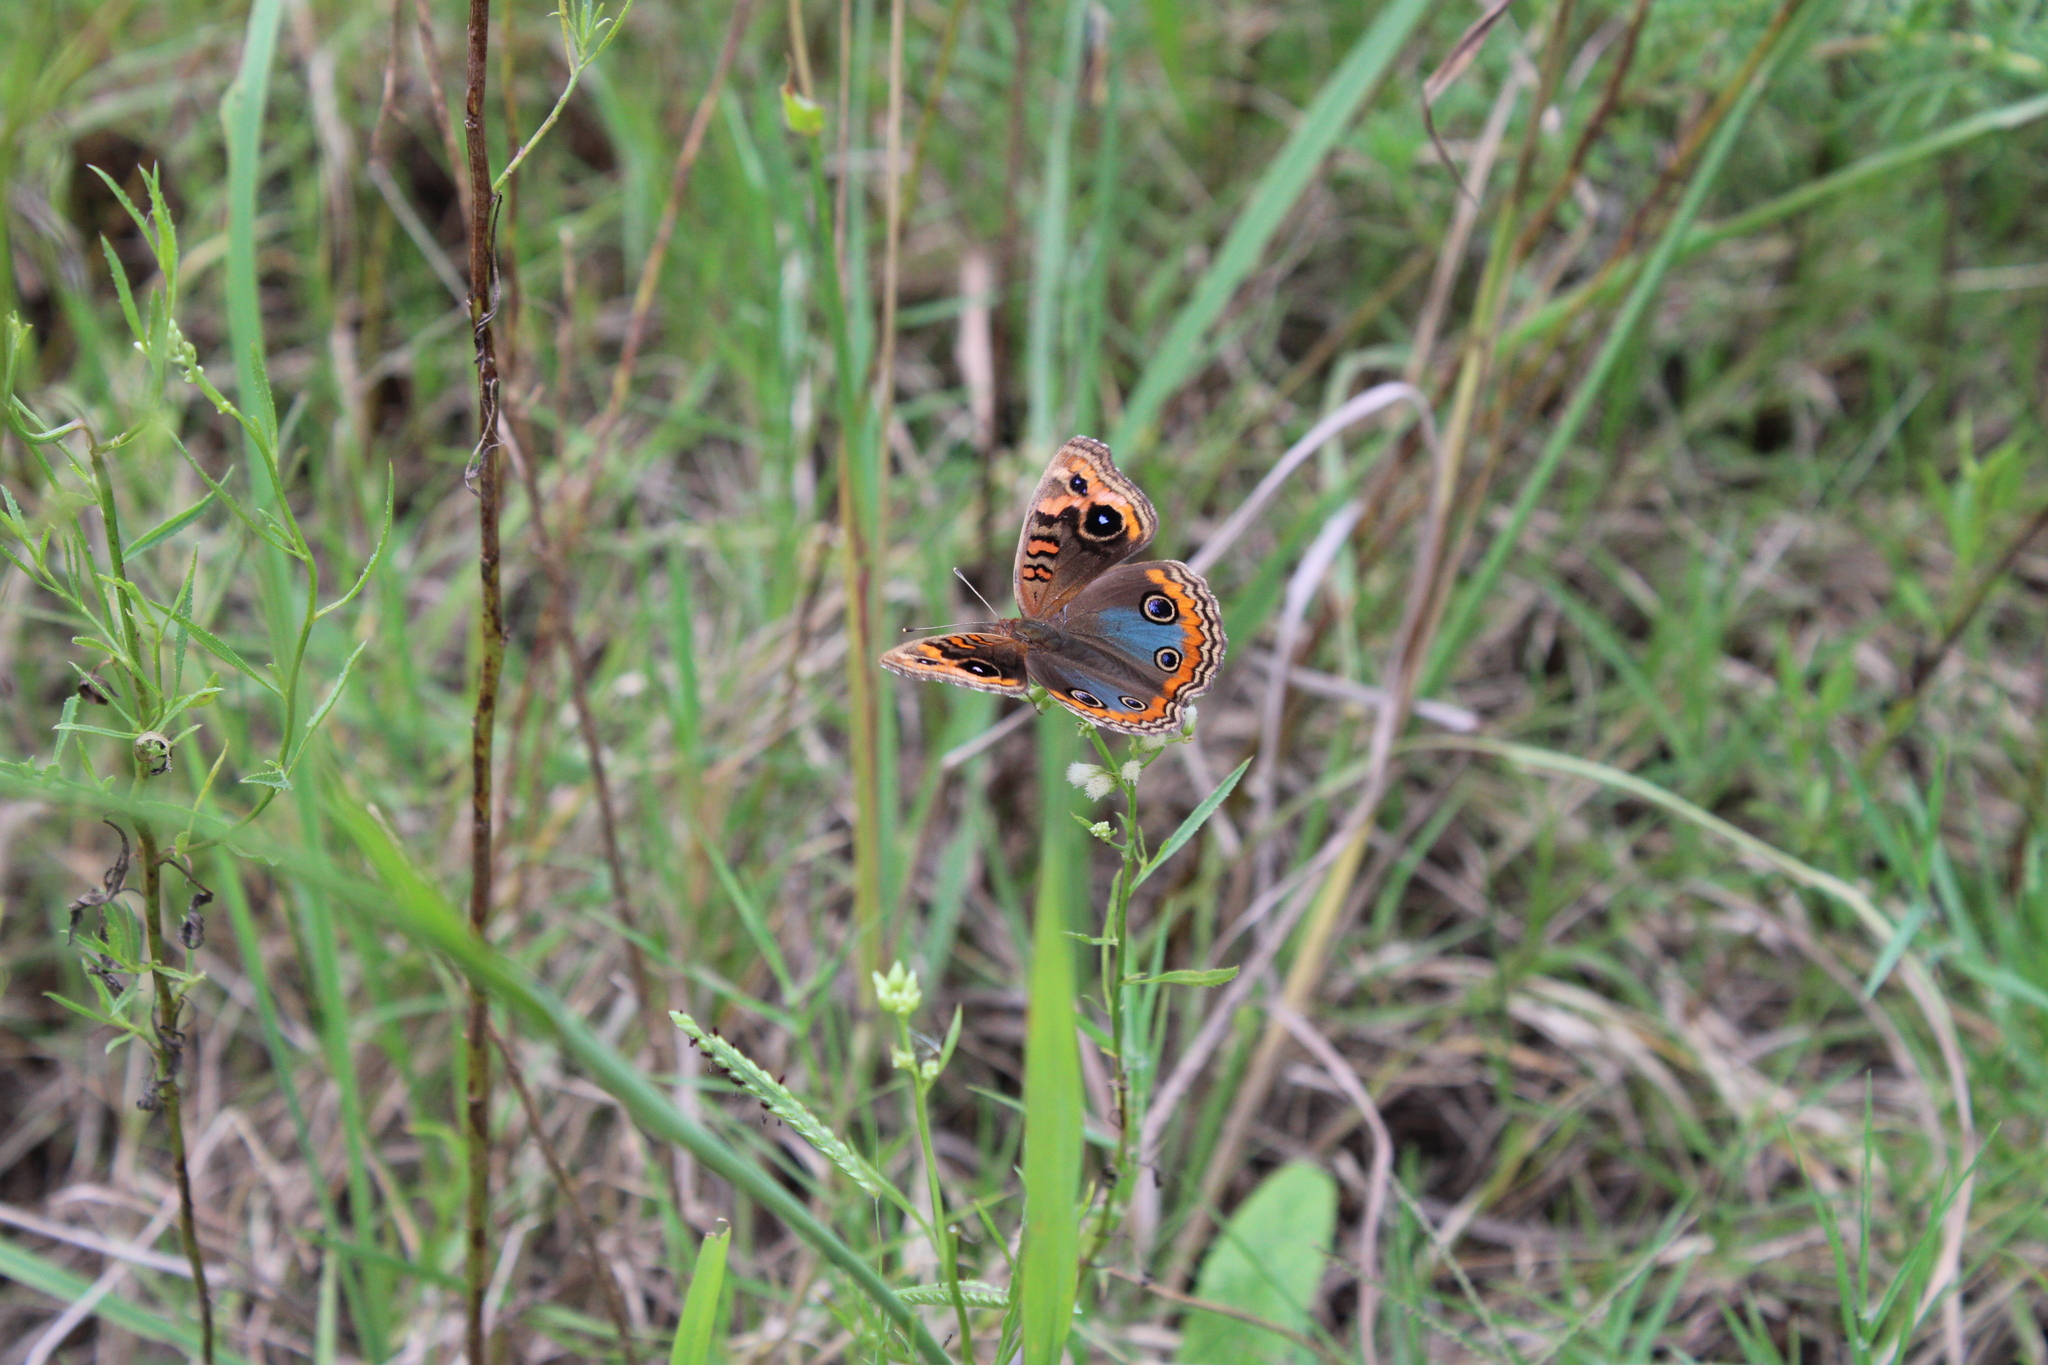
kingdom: Animalia
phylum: Arthropoda
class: Insecta
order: Lepidoptera
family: Nymphalidae
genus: Junonia
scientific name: Junonia lavinia
